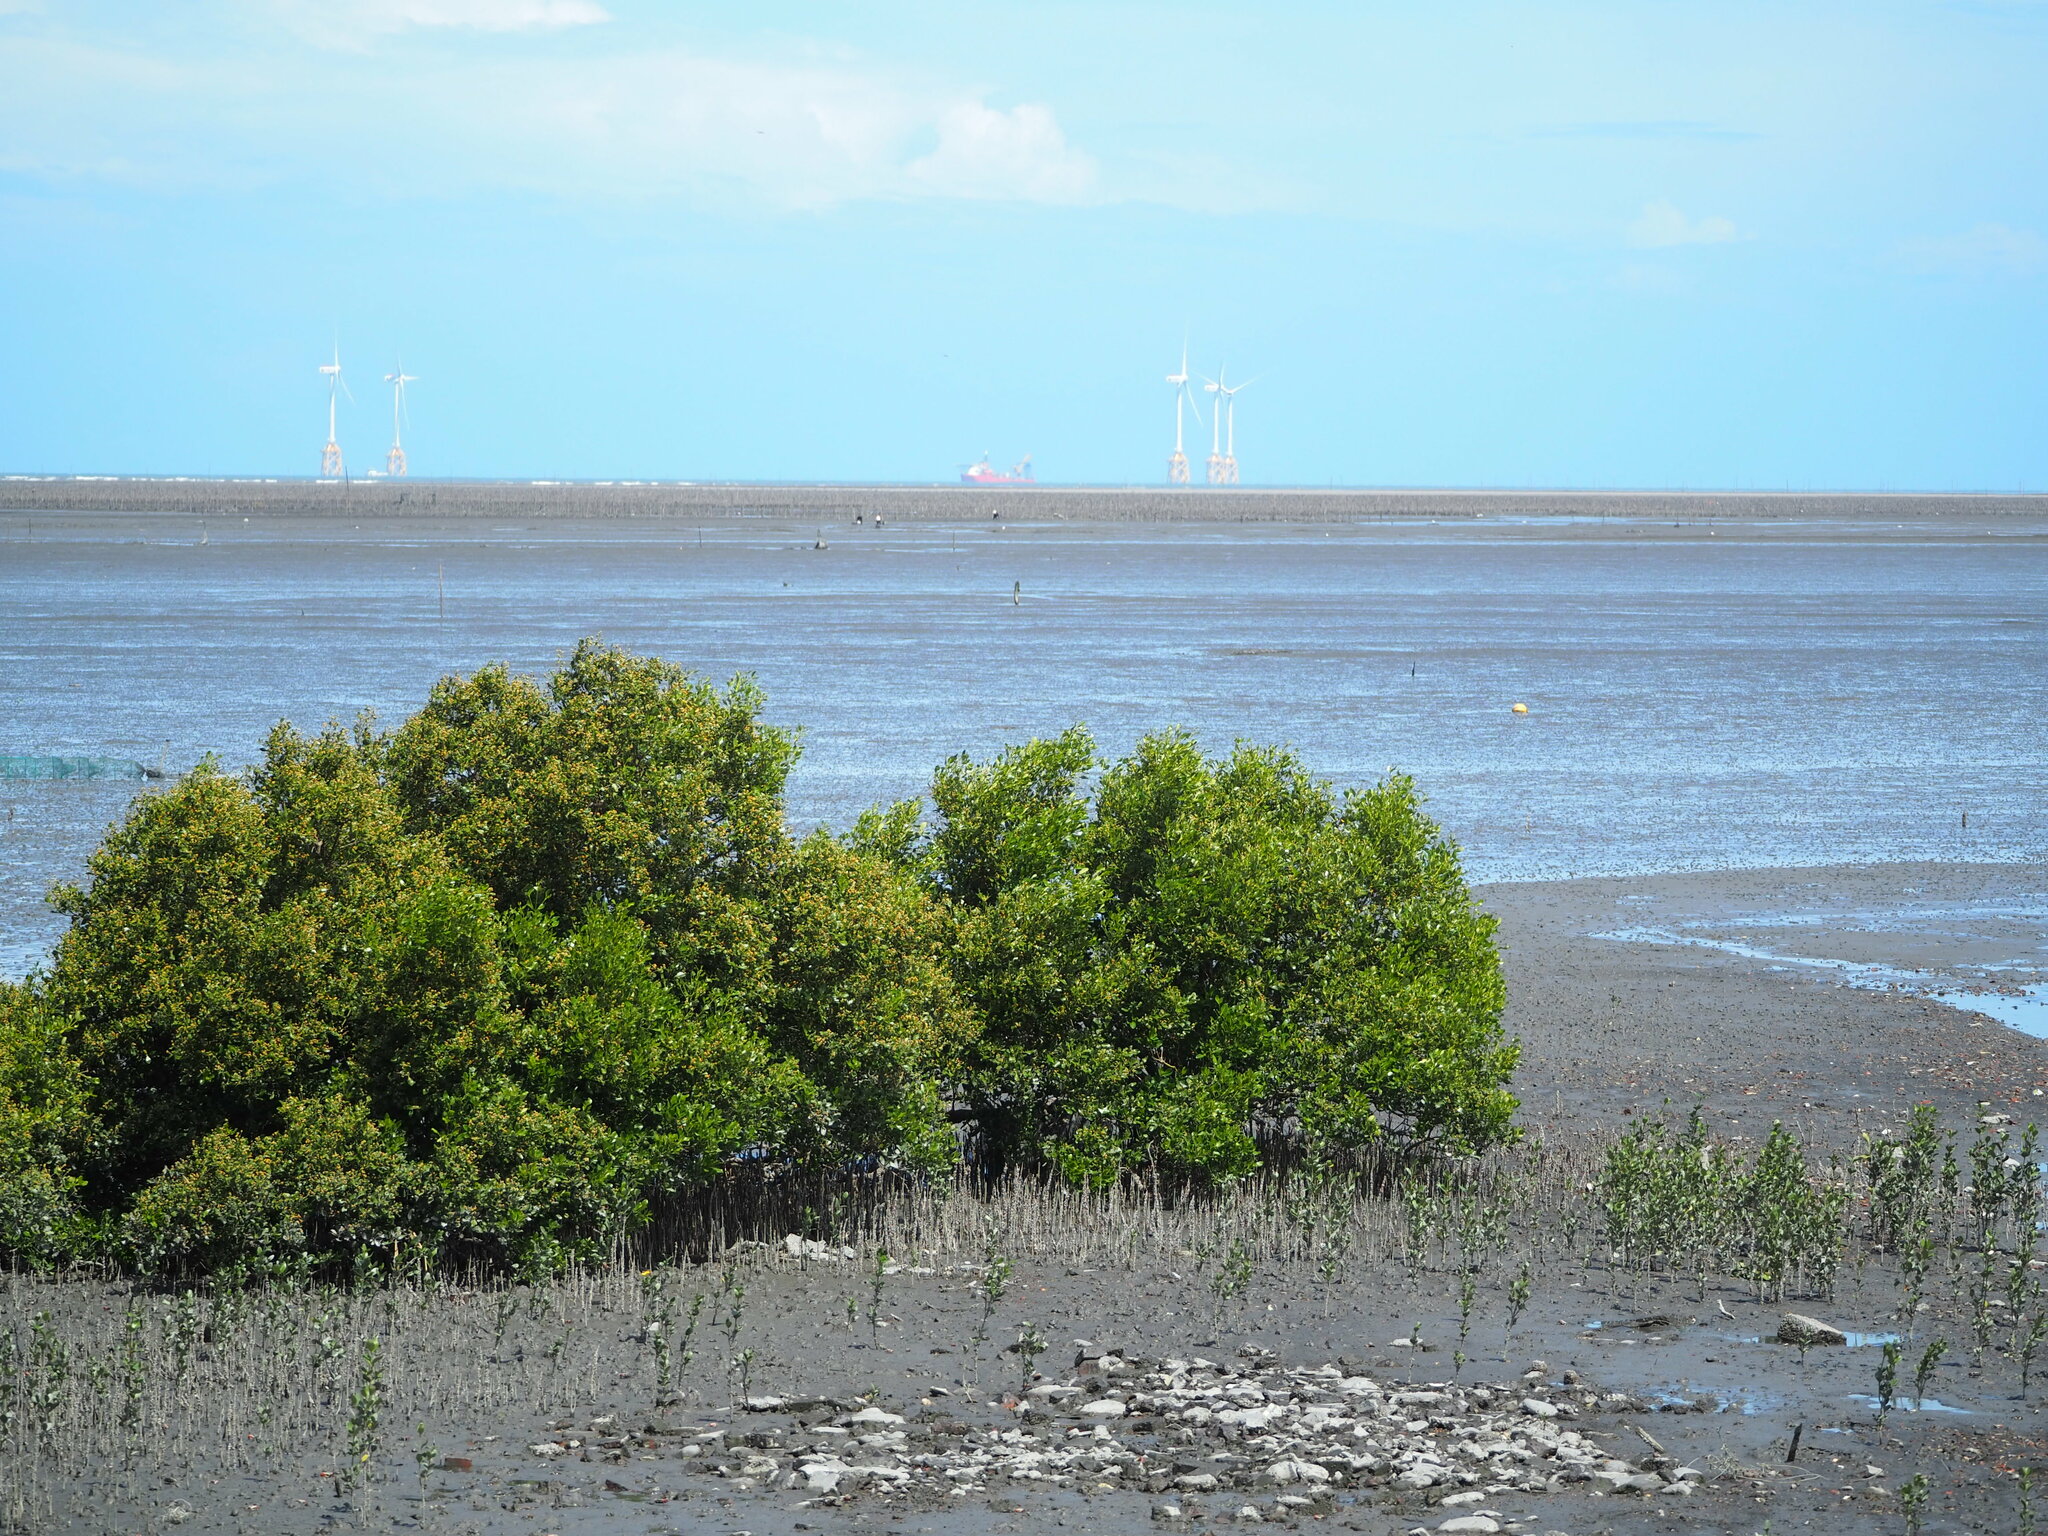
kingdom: Plantae
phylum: Tracheophyta
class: Magnoliopsida
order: Lamiales
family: Acanthaceae
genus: Avicennia
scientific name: Avicennia marina
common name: Gray mangrove
